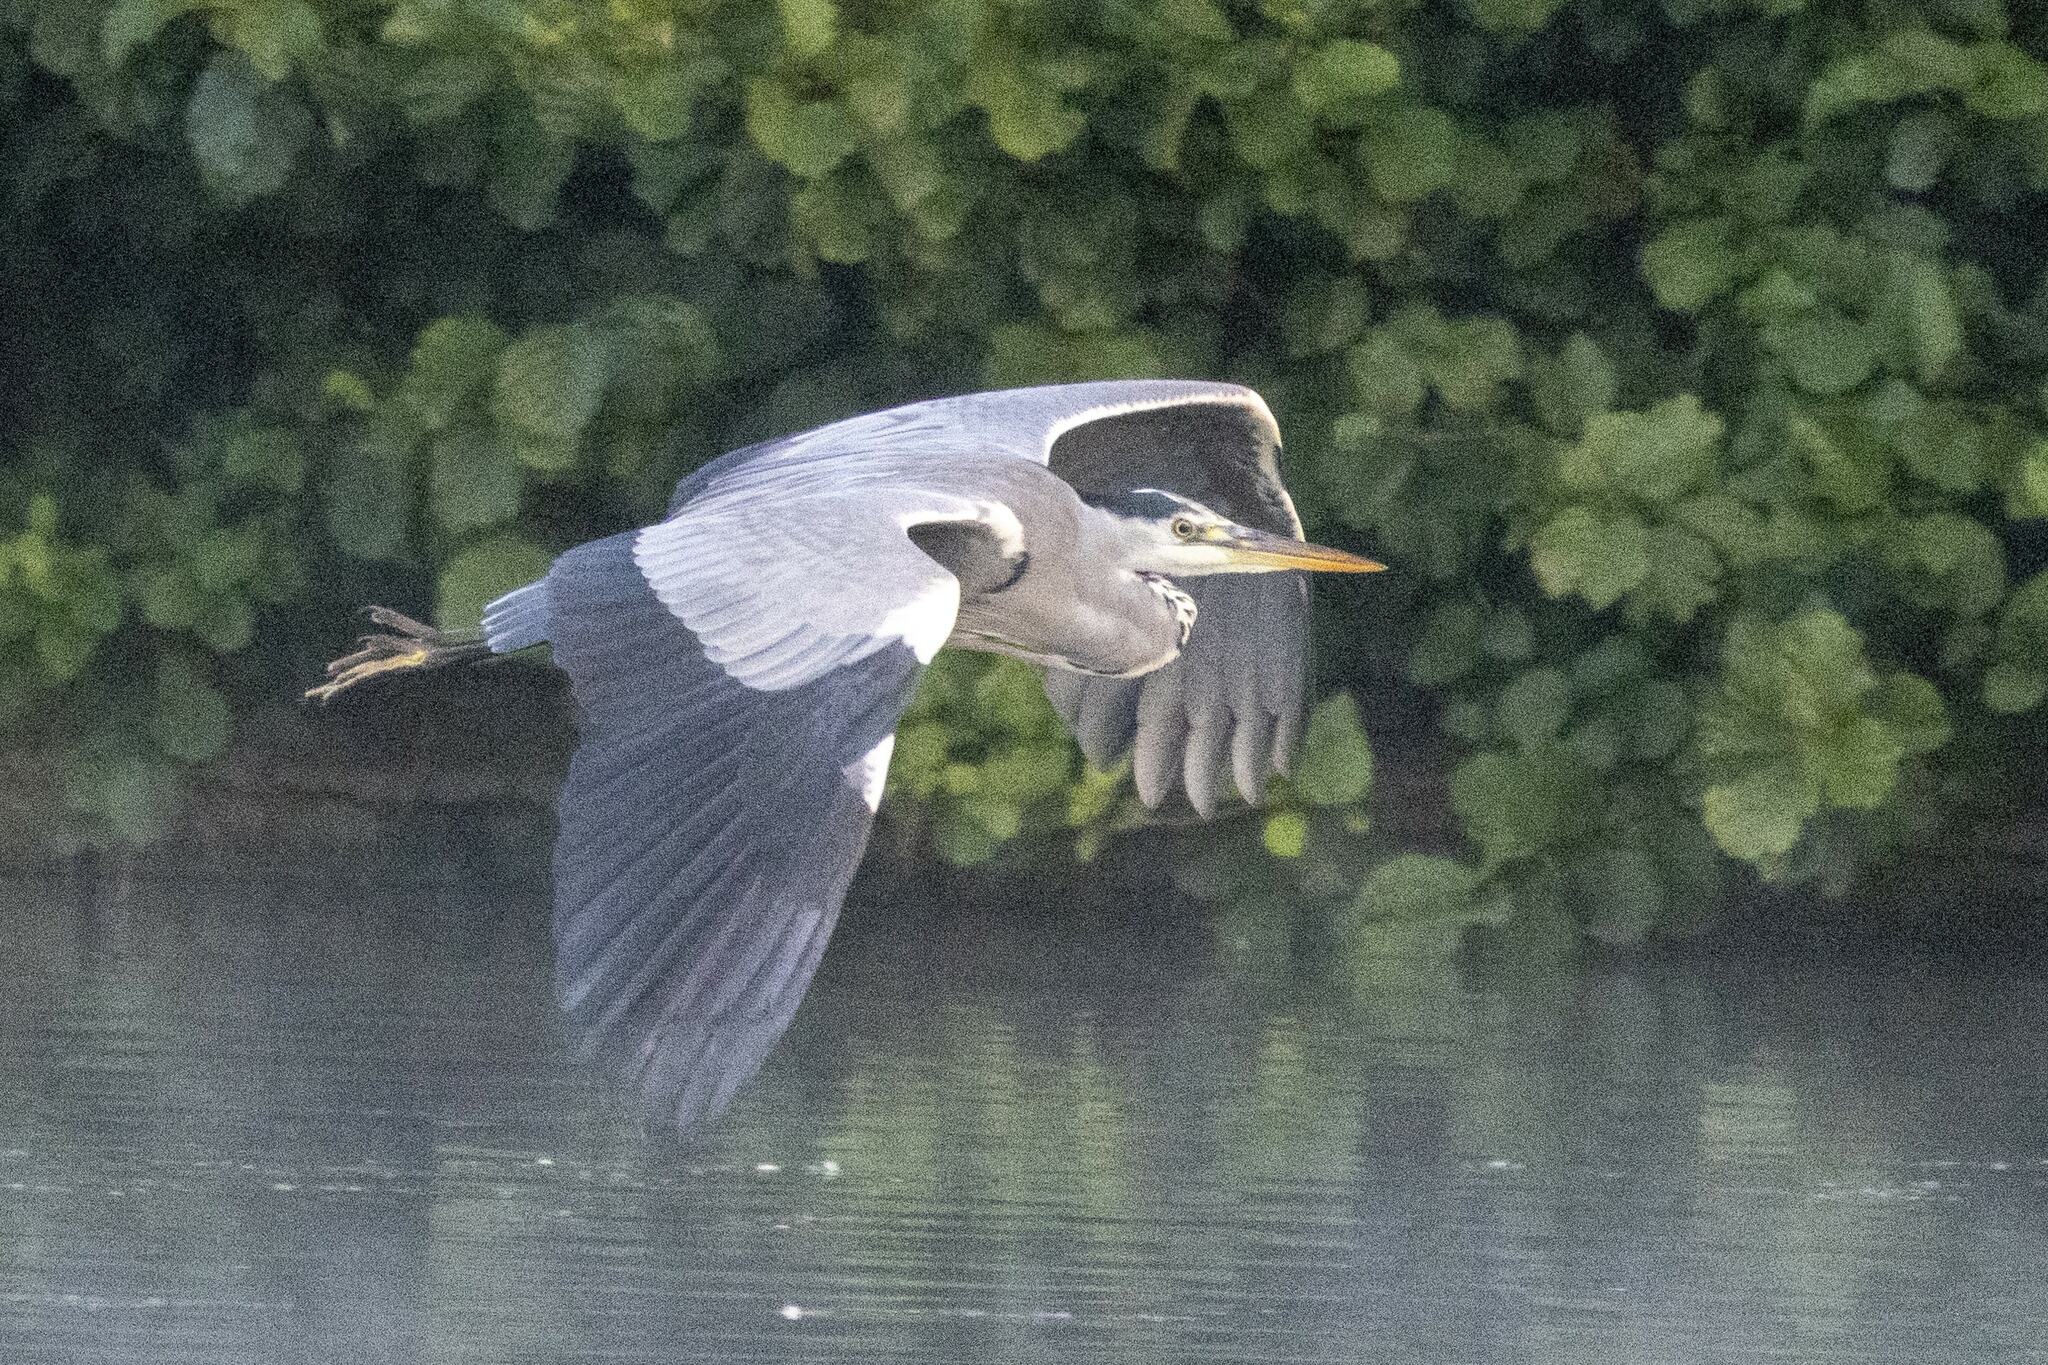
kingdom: Animalia
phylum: Chordata
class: Aves
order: Pelecaniformes
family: Ardeidae
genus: Ardea
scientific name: Ardea cinerea
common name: Grey heron
